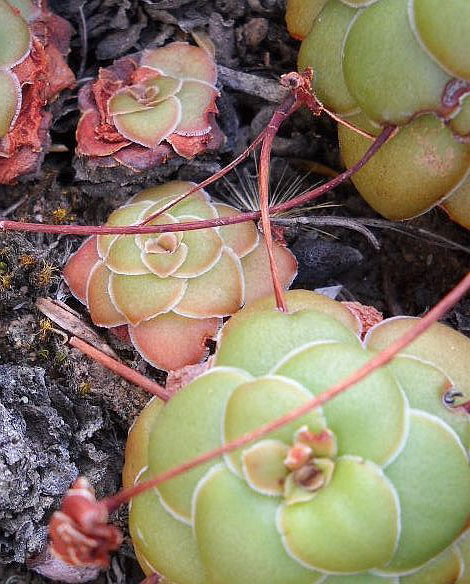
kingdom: Plantae
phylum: Tracheophyta
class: Magnoliopsida
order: Saxifragales
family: Crassulaceae
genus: Crassula
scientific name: Crassula orbicularis
